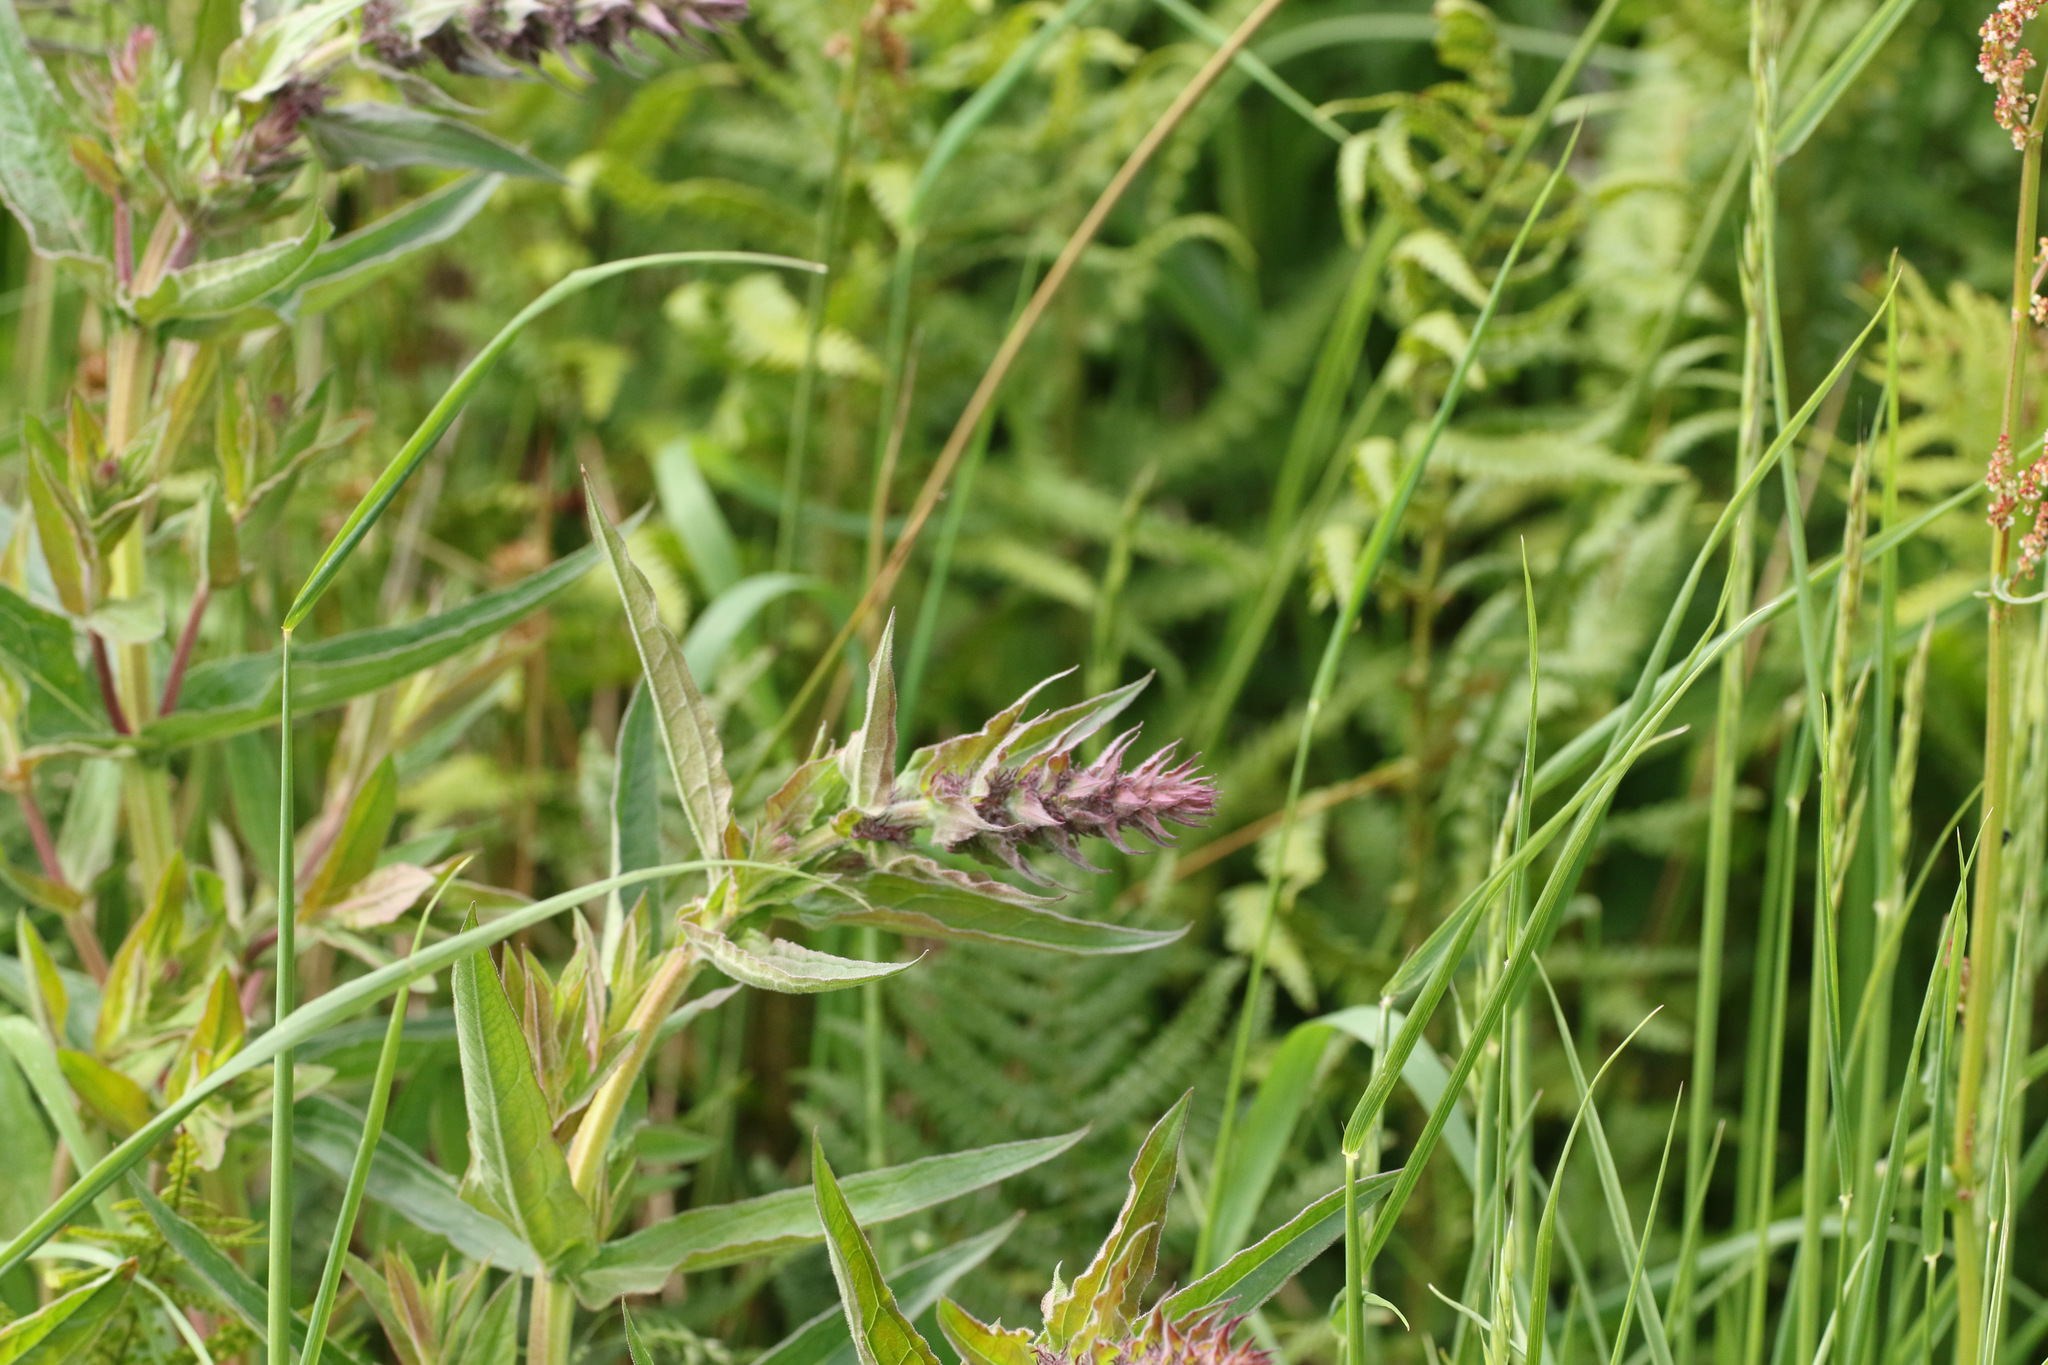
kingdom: Plantae
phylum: Tracheophyta
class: Magnoliopsida
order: Myrtales
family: Lythraceae
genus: Lythrum
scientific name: Lythrum salicaria
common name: Purple loosestrife
